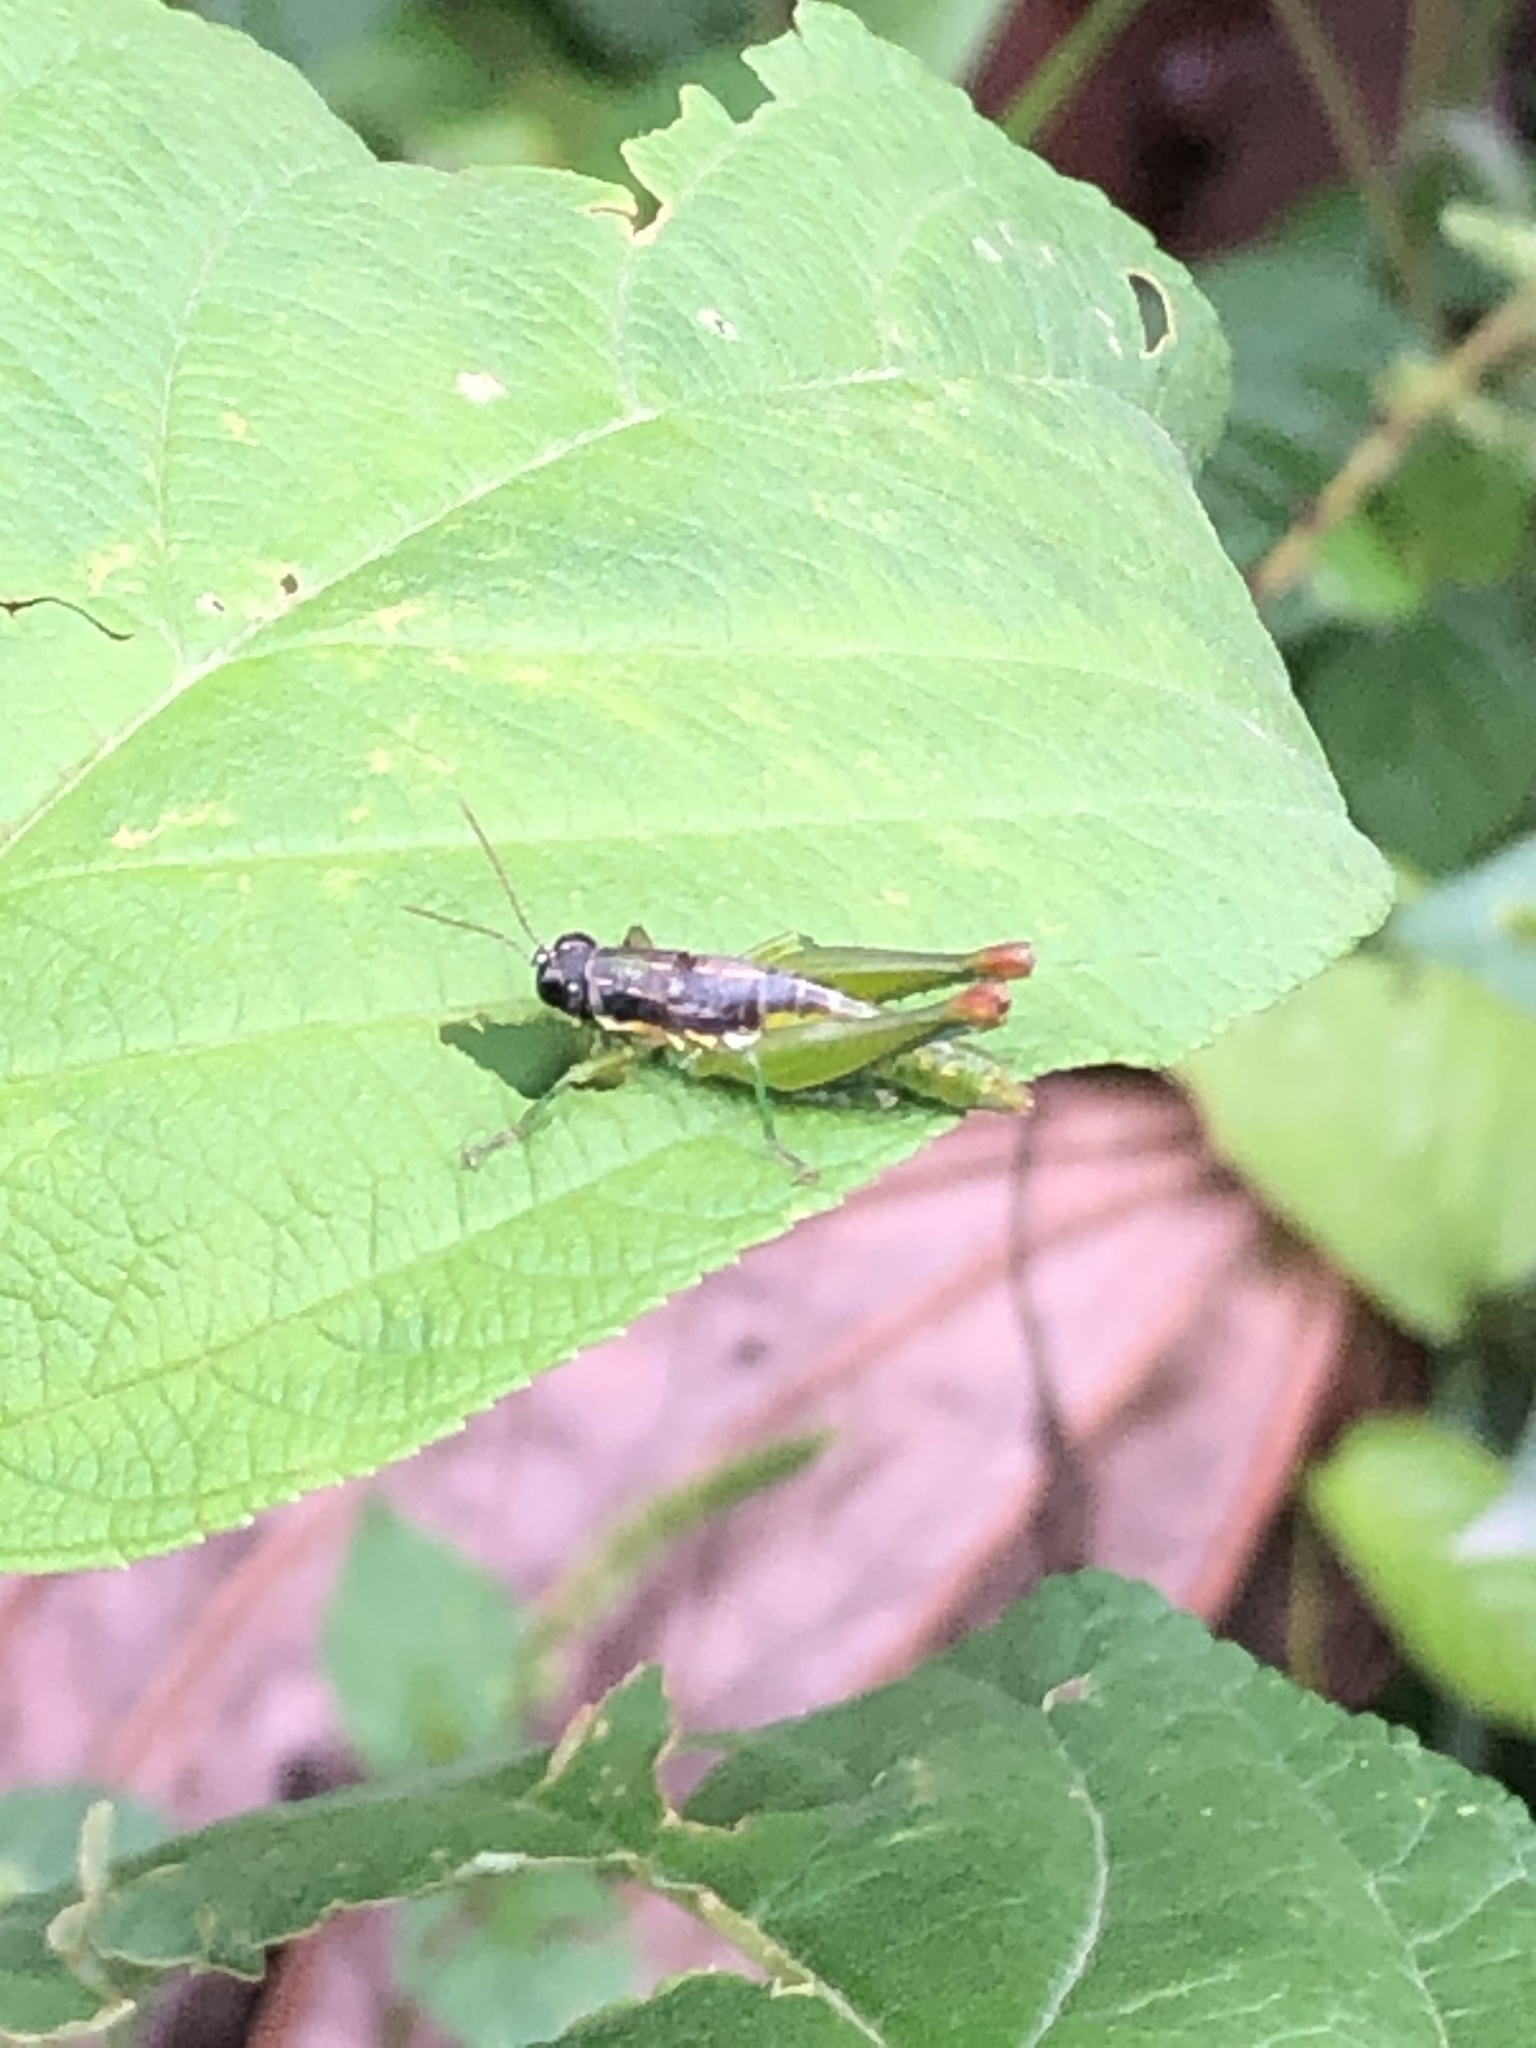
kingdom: Animalia
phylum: Arthropoda
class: Insecta
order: Orthoptera
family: Acrididae
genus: Liebermannacris
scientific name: Liebermannacris dorsualis
